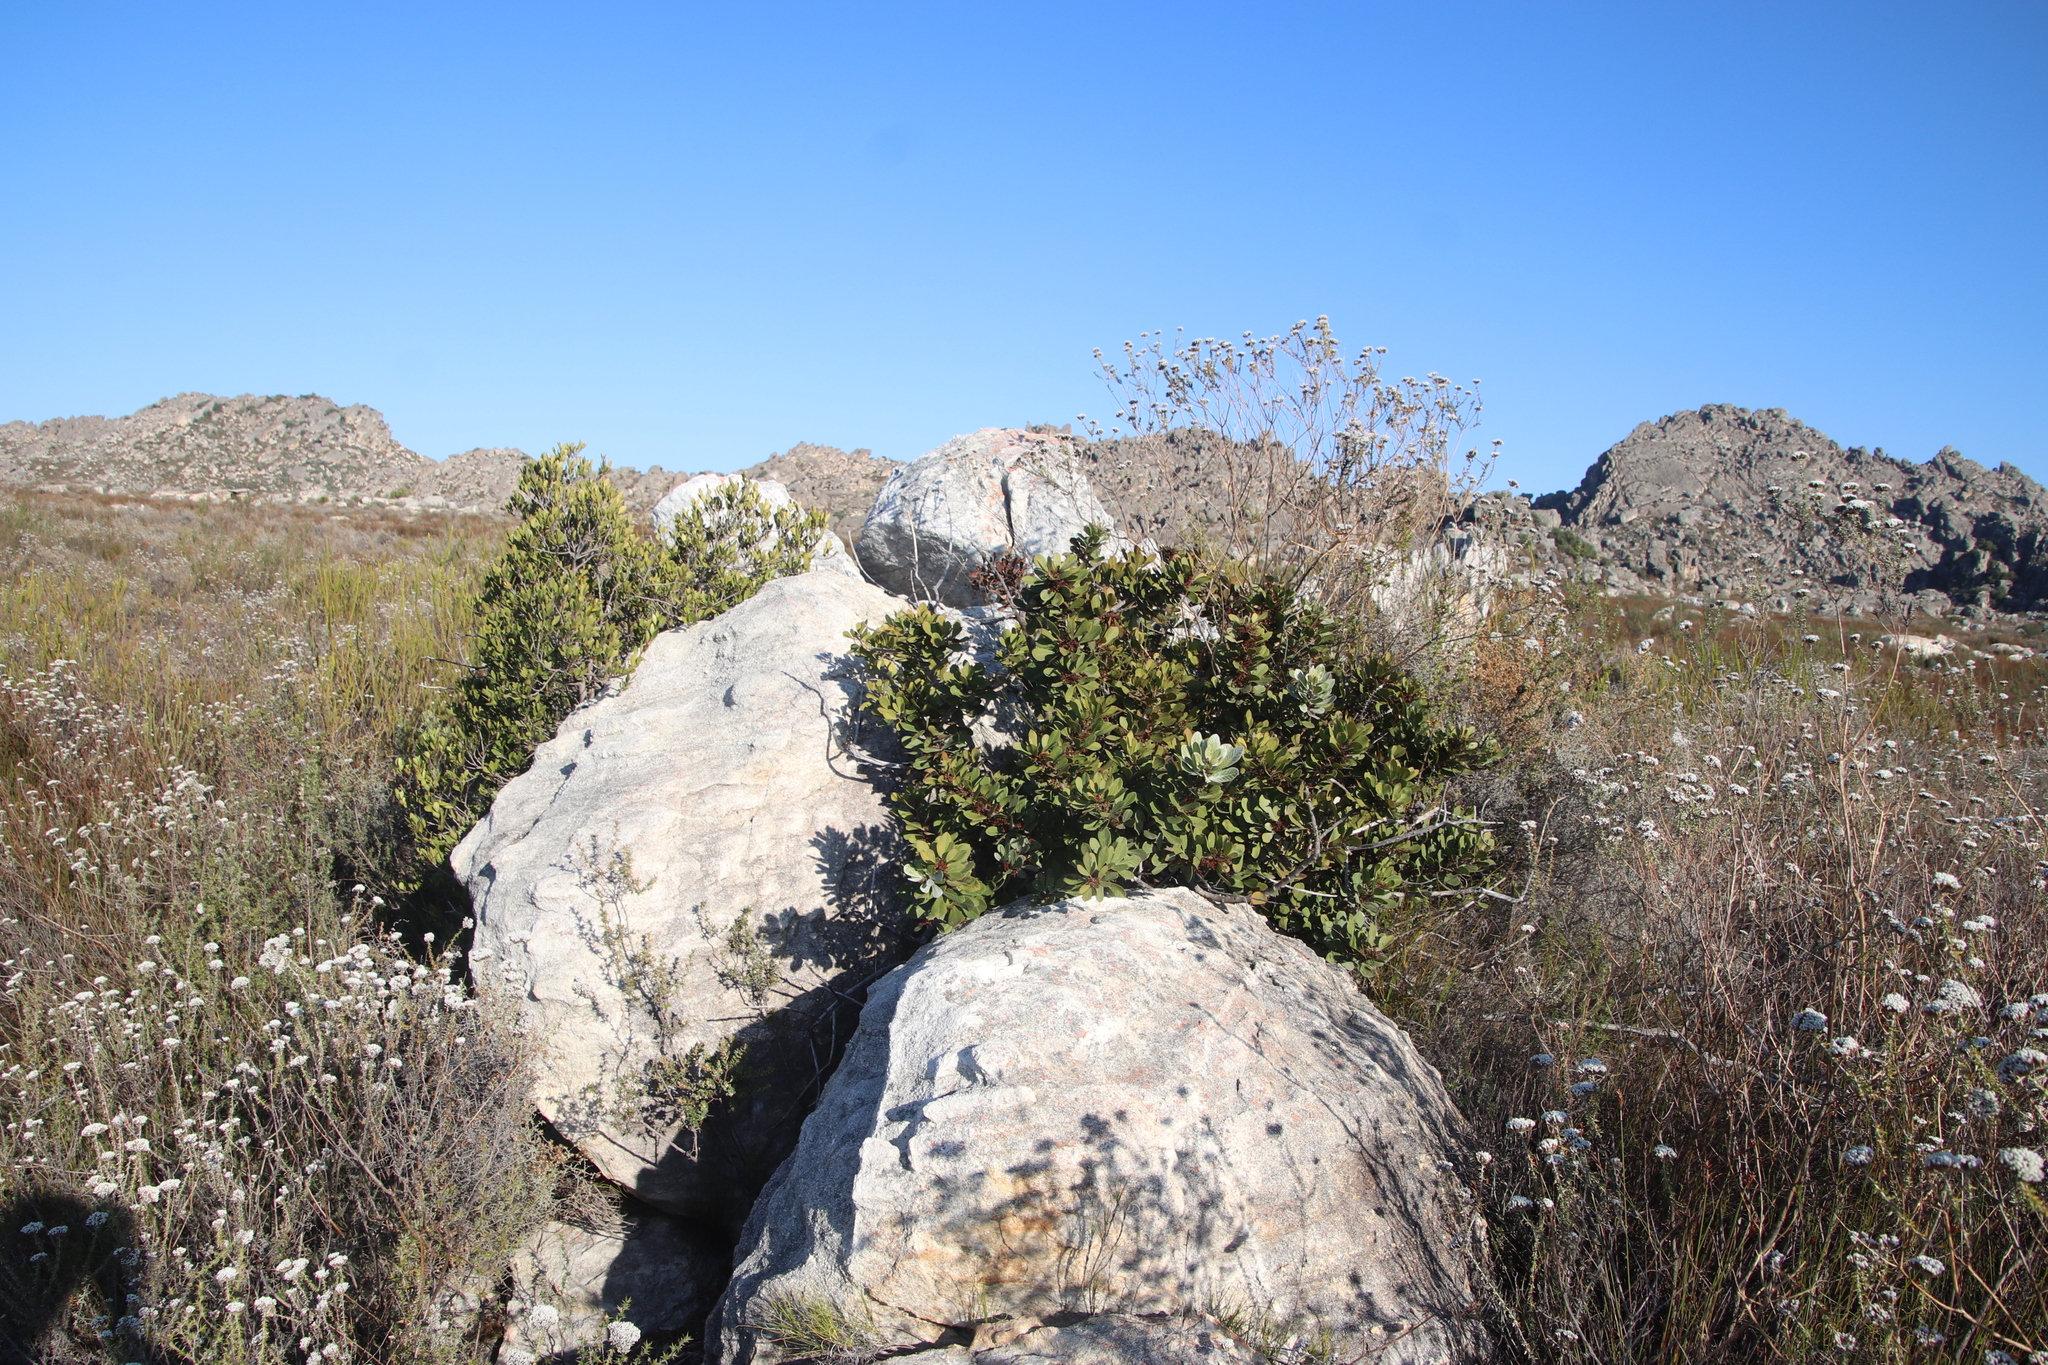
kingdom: Plantae
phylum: Tracheophyta
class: Magnoliopsida
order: Ericales
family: Ebenaceae
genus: Diospyros
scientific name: Diospyros glabra
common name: Fynbos star apple
